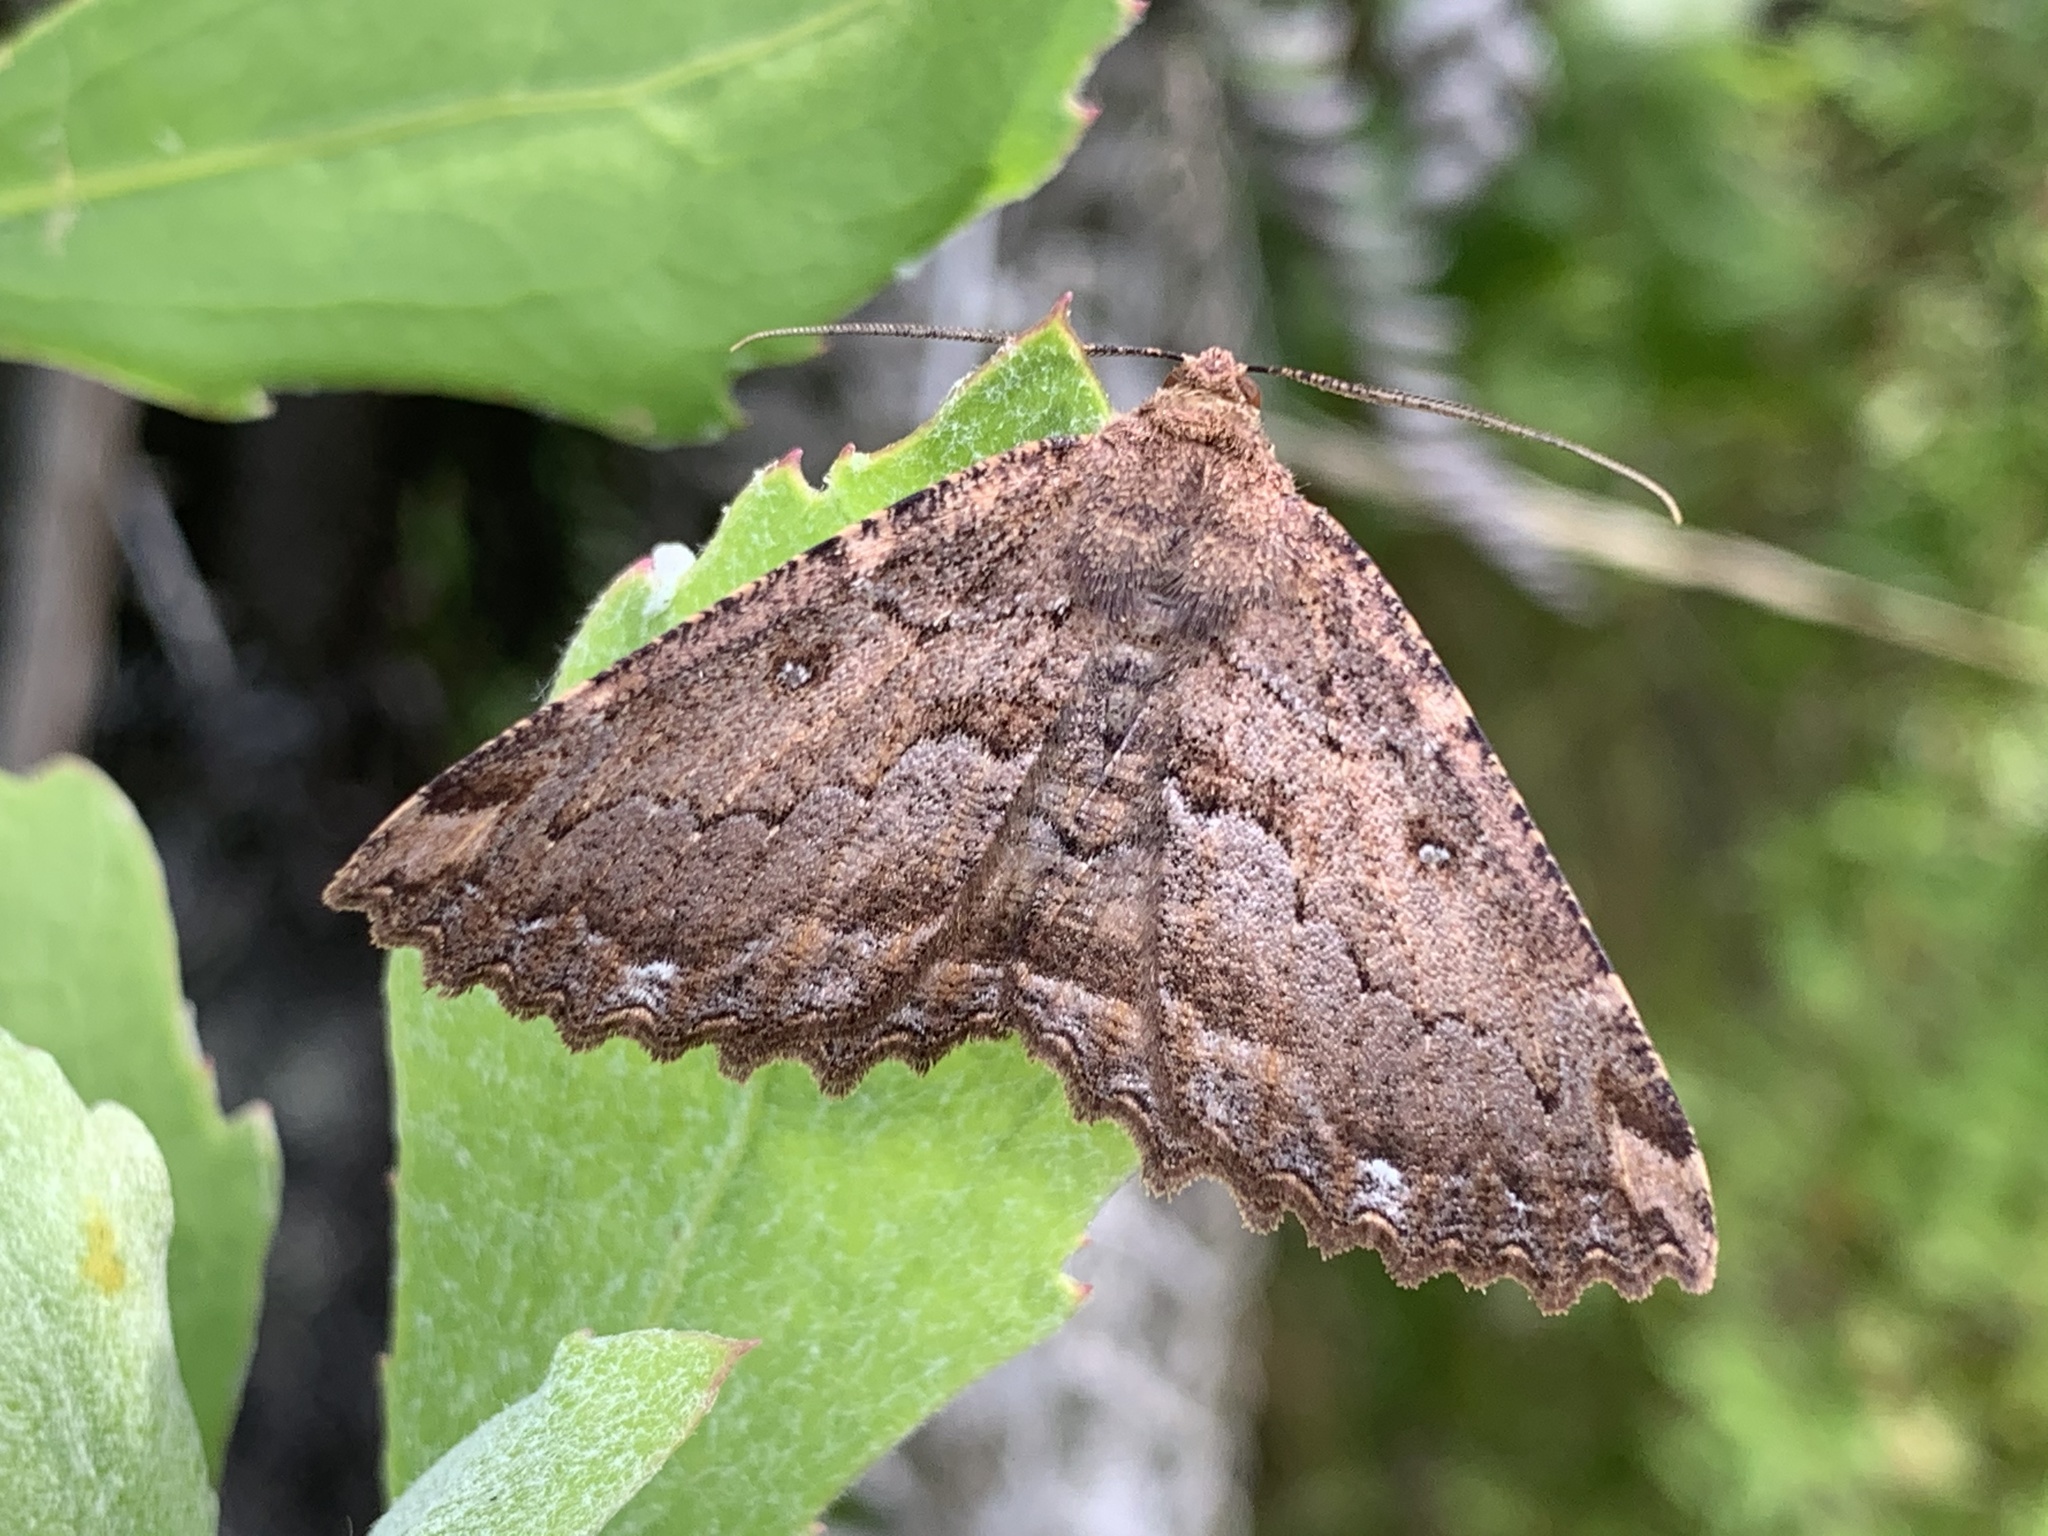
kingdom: Animalia
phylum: Arthropoda
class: Insecta
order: Lepidoptera
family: Geometridae
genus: Gellonia
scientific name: Gellonia dejectaria
